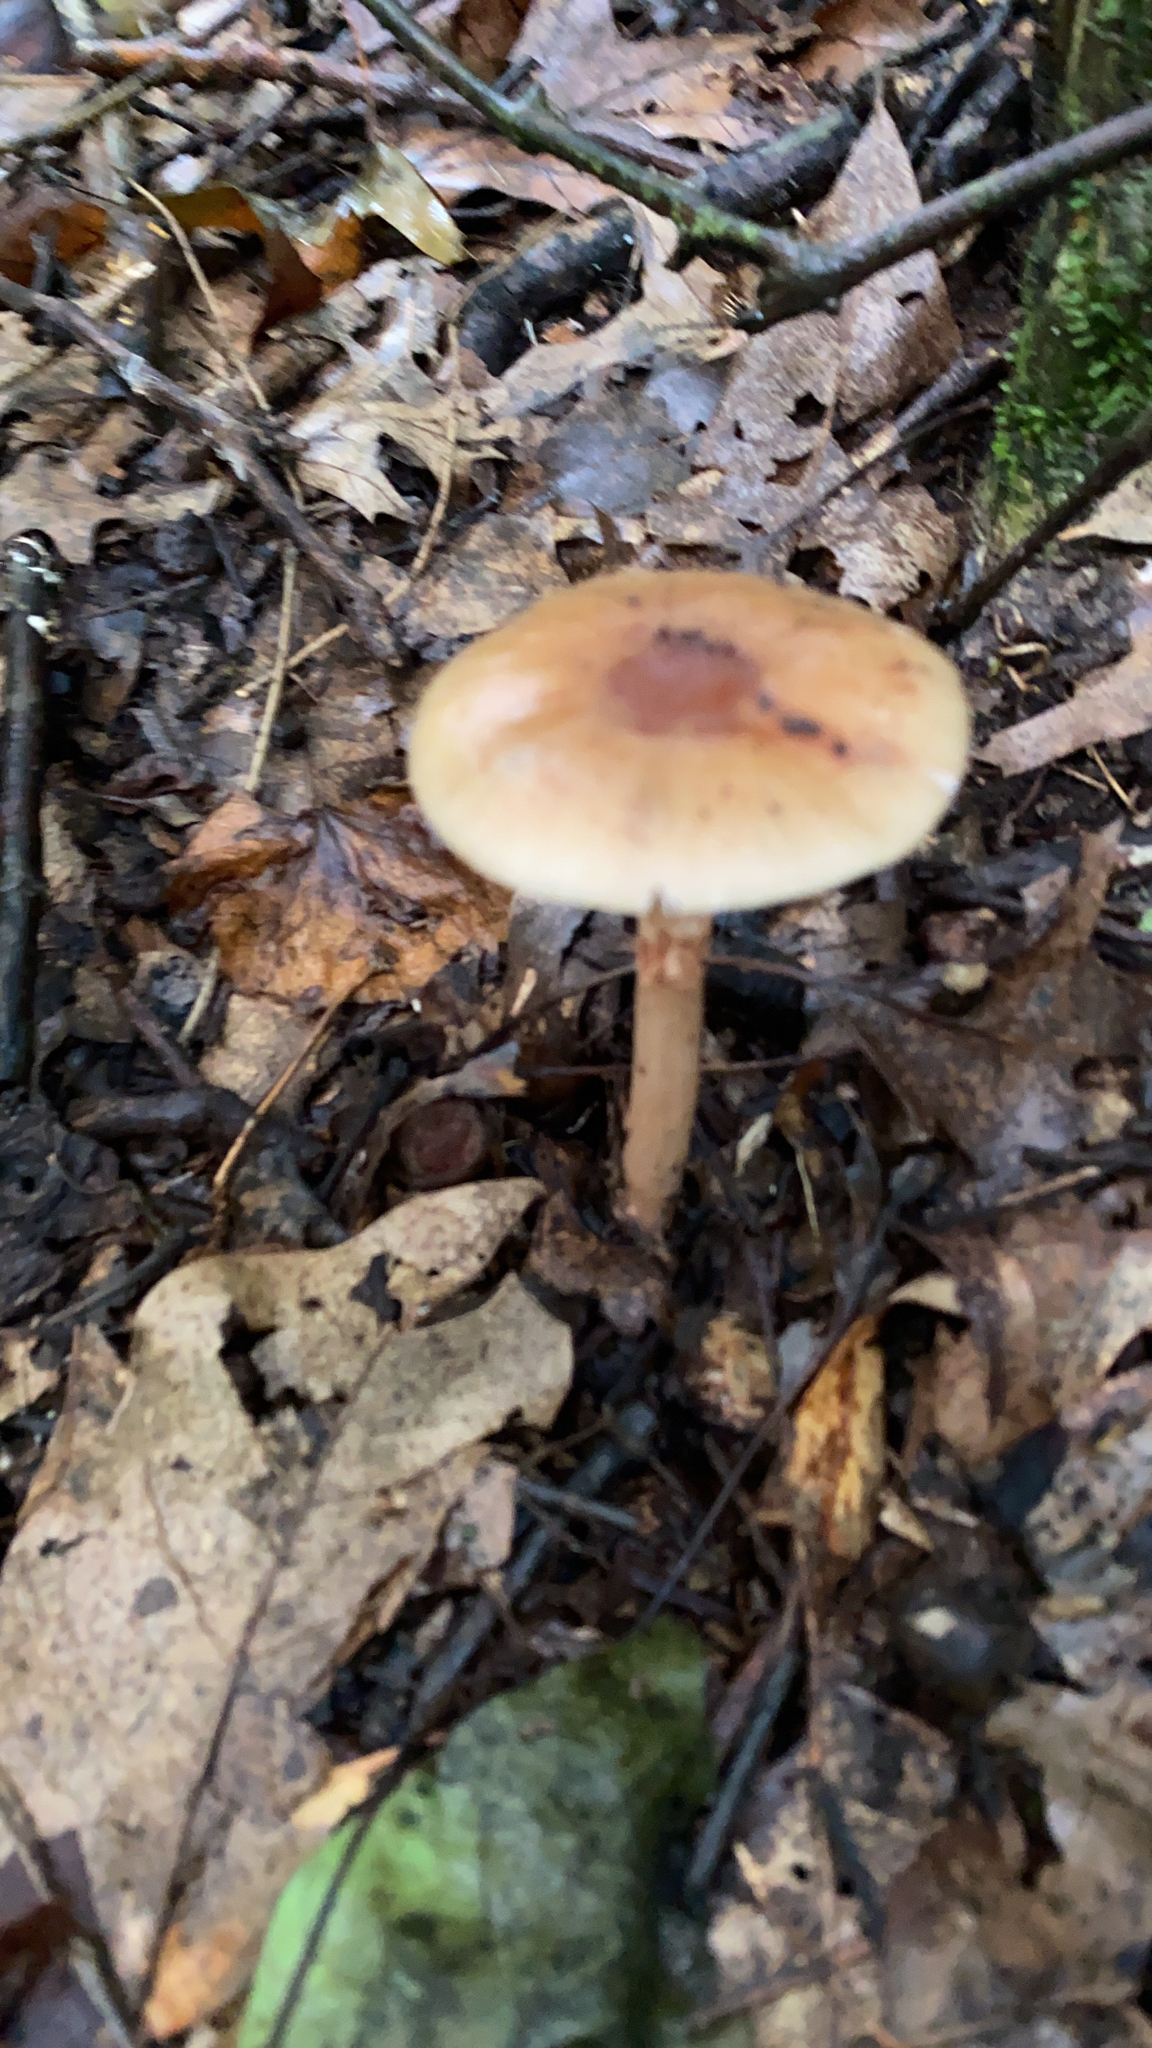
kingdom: Fungi
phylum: Basidiomycota
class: Agaricomycetes
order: Agaricales
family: Amanitaceae
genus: Amanita
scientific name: Amanita brunnescens
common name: Brown american star-footed amanita
